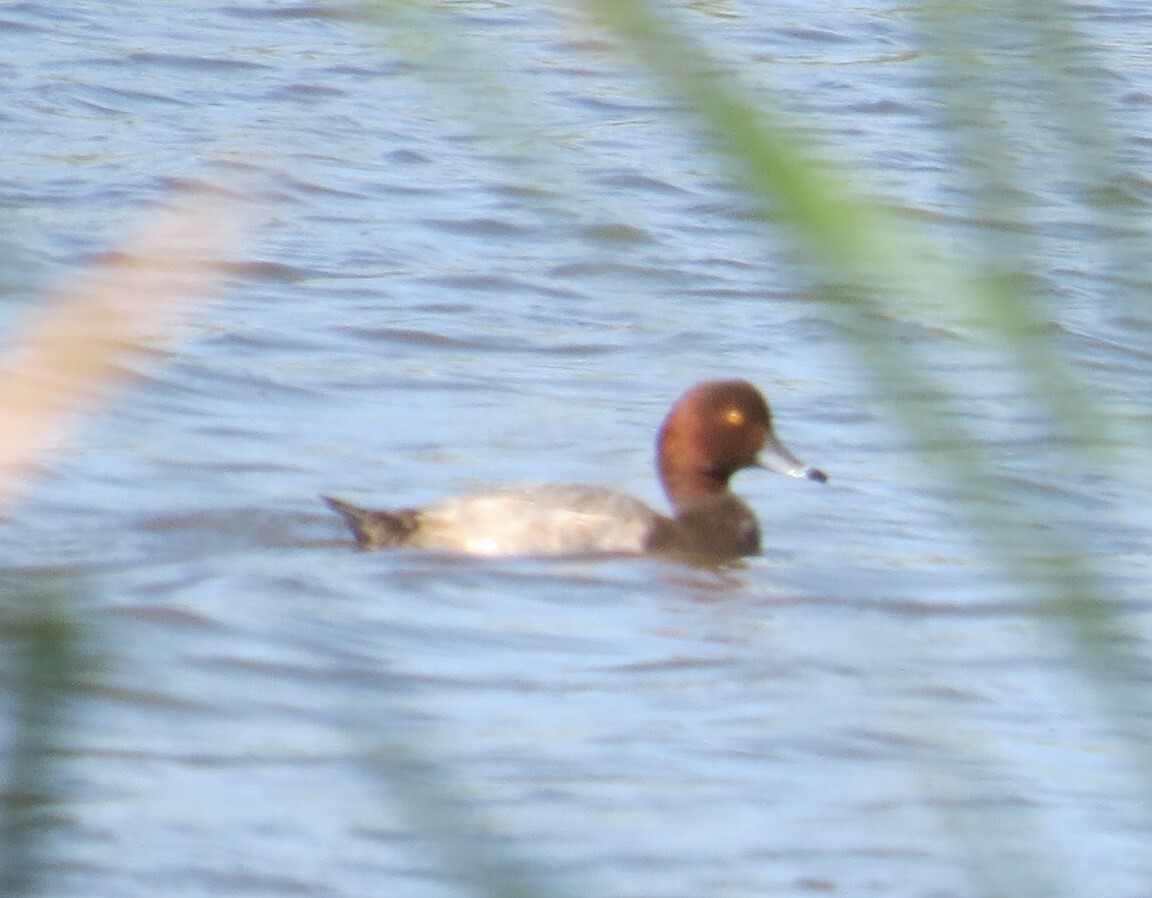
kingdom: Animalia
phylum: Chordata
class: Aves
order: Anseriformes
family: Anatidae
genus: Aythya
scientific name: Aythya americana
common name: Redhead
